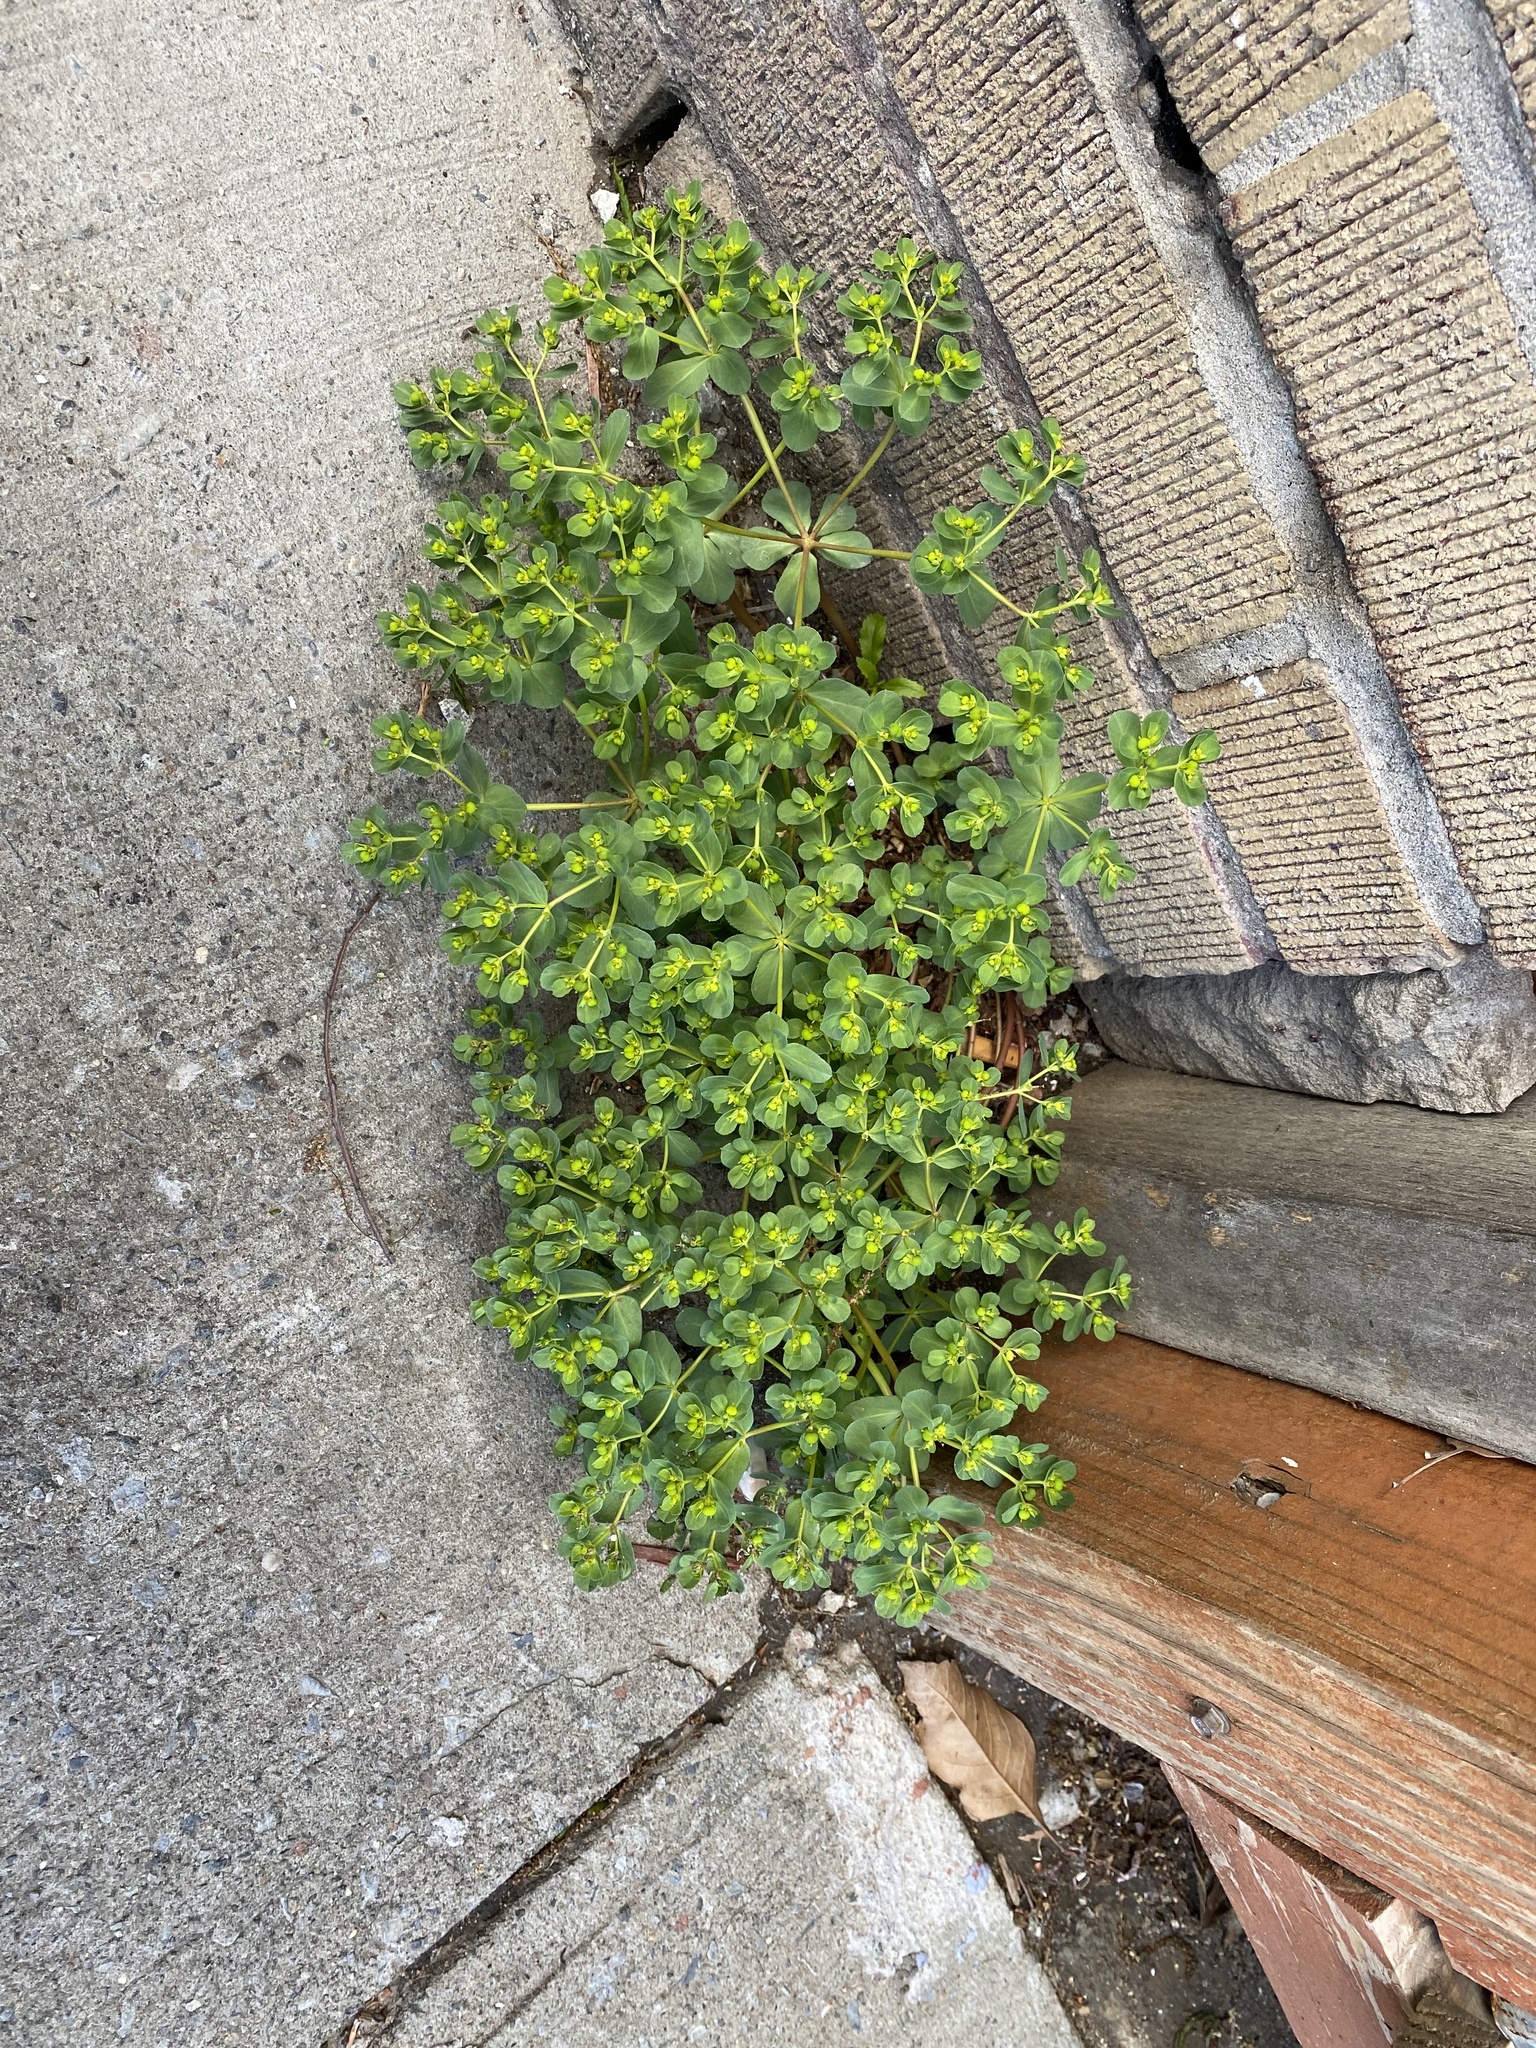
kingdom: Plantae
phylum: Tracheophyta
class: Magnoliopsida
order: Malpighiales
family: Euphorbiaceae
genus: Euphorbia
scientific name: Euphorbia helioscopia
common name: Sun spurge
